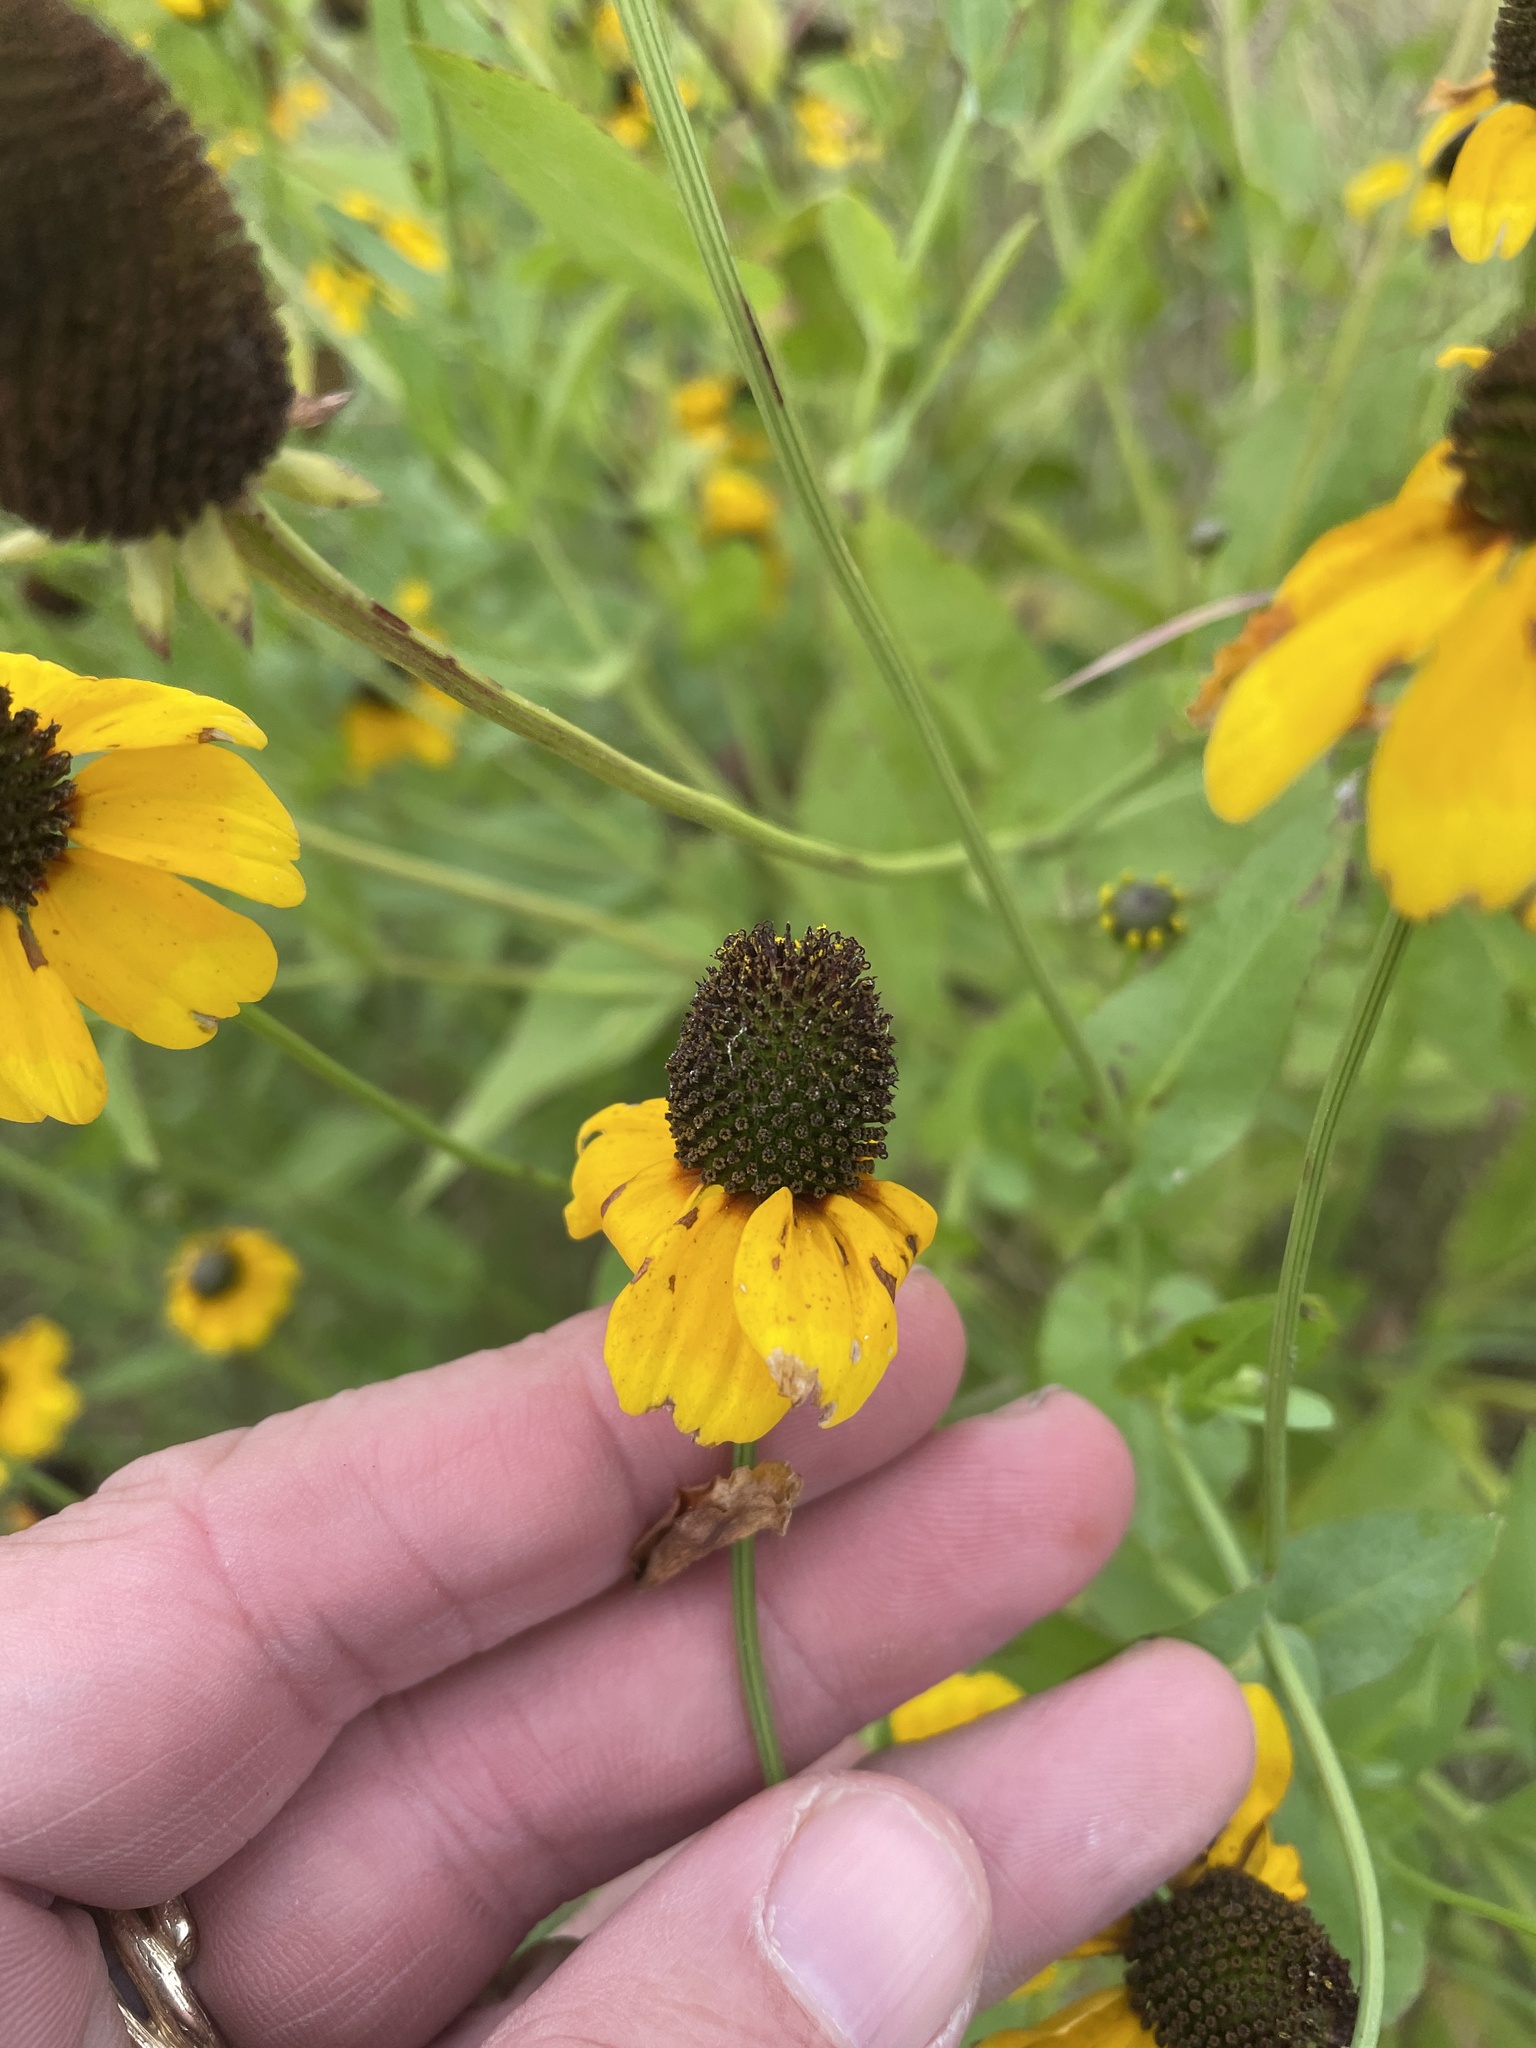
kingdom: Plantae
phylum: Tracheophyta
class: Magnoliopsida
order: Asterales
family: Asteraceae
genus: Rudbeckia
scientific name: Rudbeckia amplexicaulis
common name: Clasping-leaf coneflower
